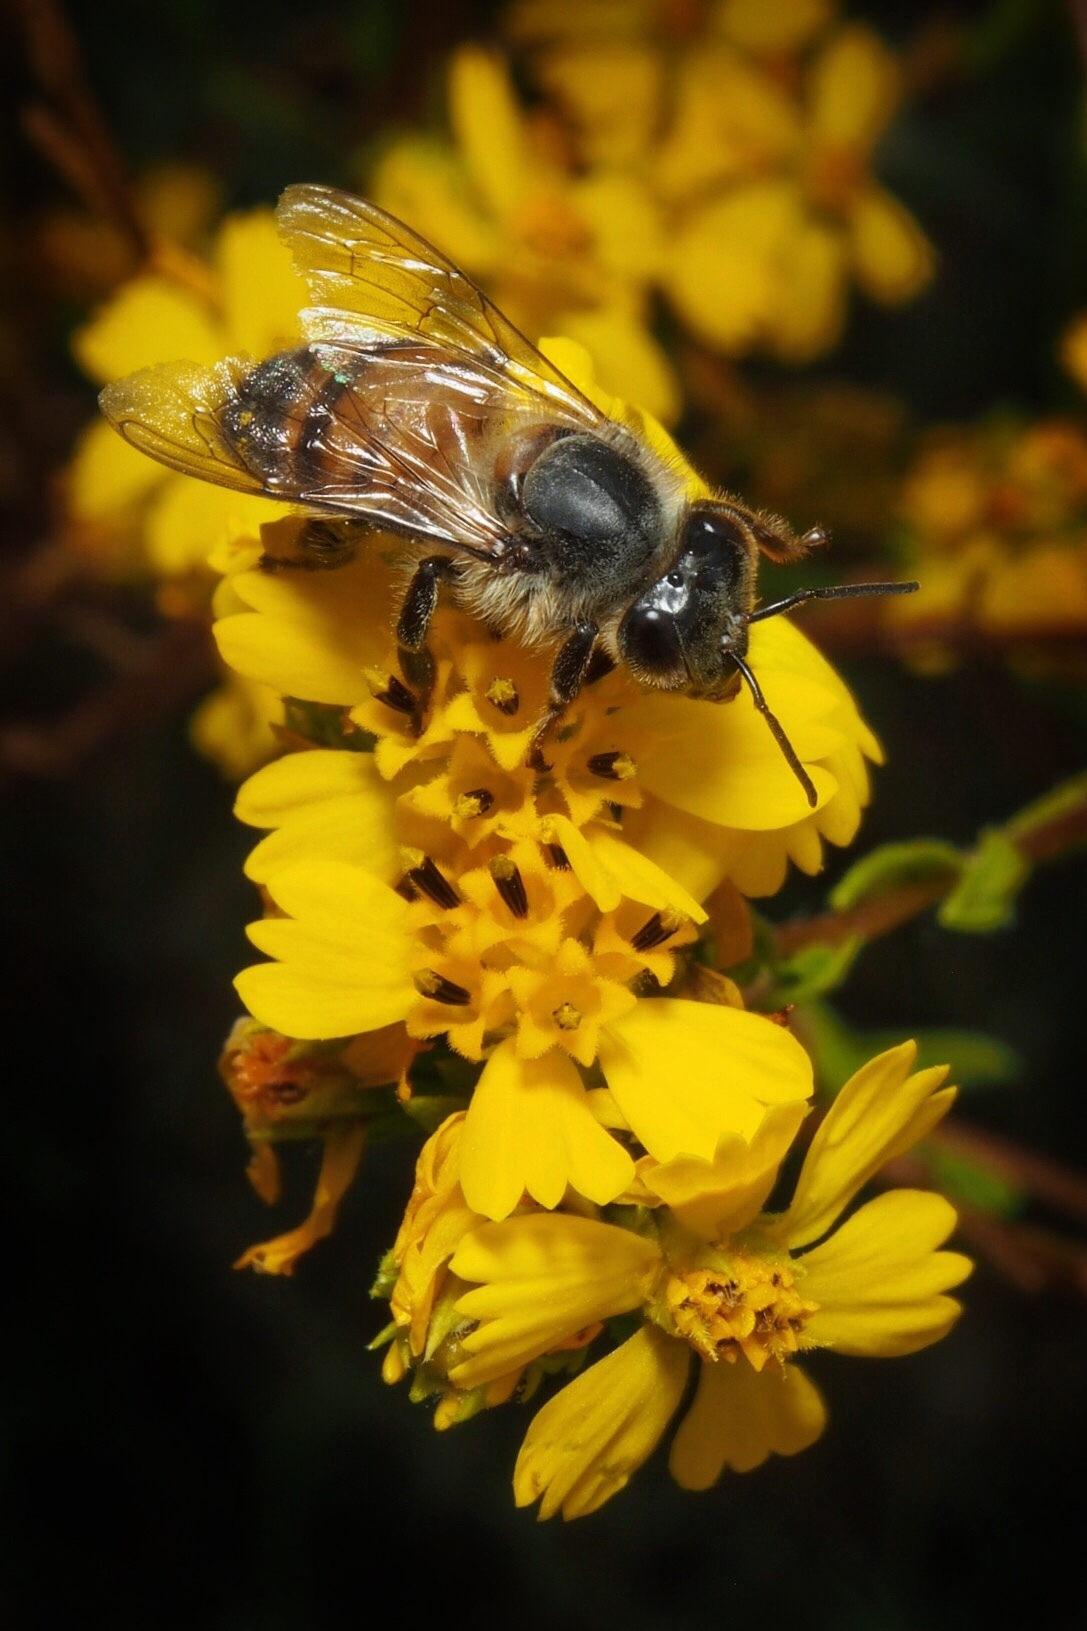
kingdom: Animalia
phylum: Arthropoda
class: Insecta
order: Hymenoptera
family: Apidae
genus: Apis
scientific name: Apis mellifera
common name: Honey bee
